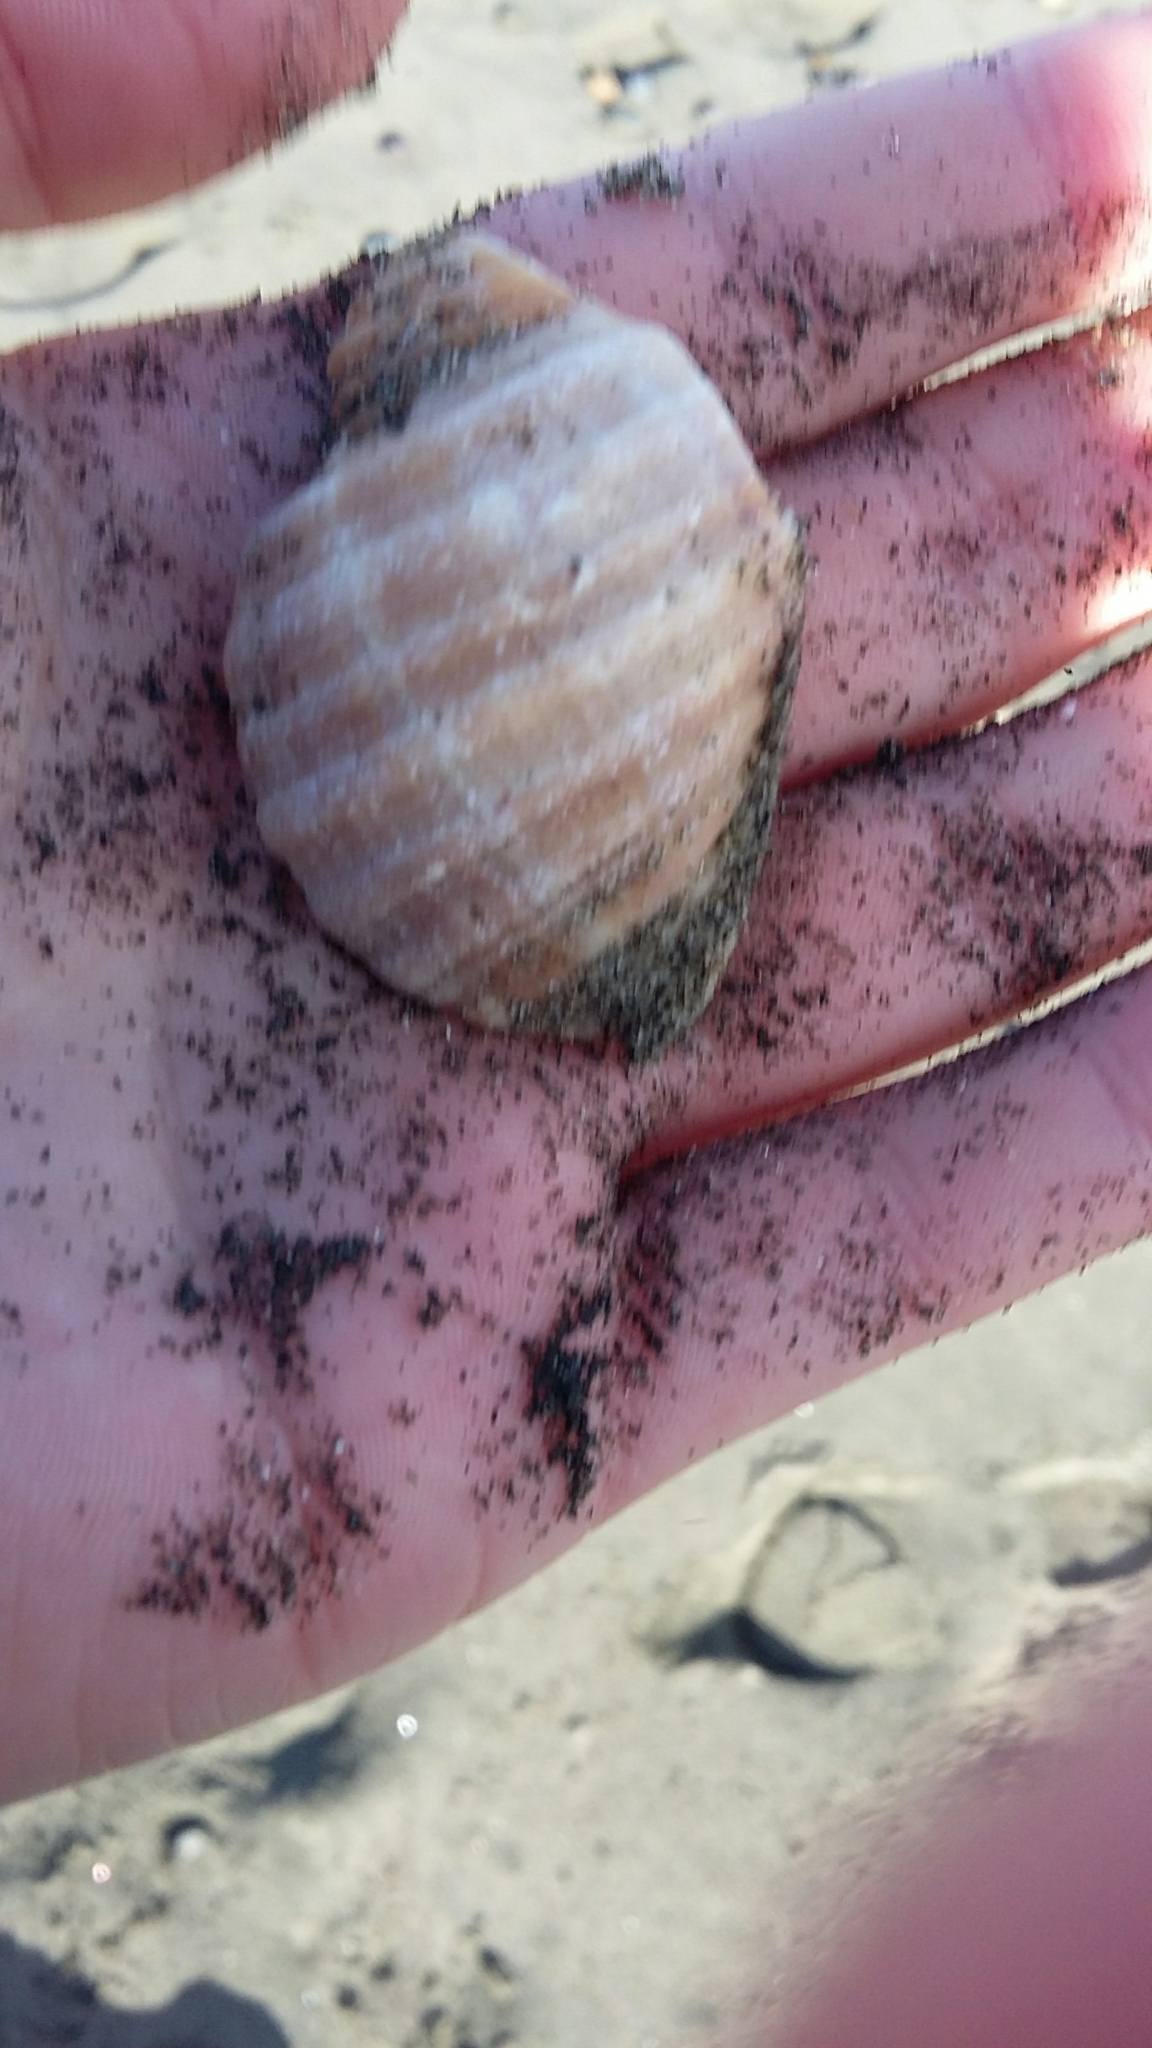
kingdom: Animalia
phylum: Mollusca
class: Gastropoda
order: Neogastropoda
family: Muricidae
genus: Dicathais
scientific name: Dicathais orbita
